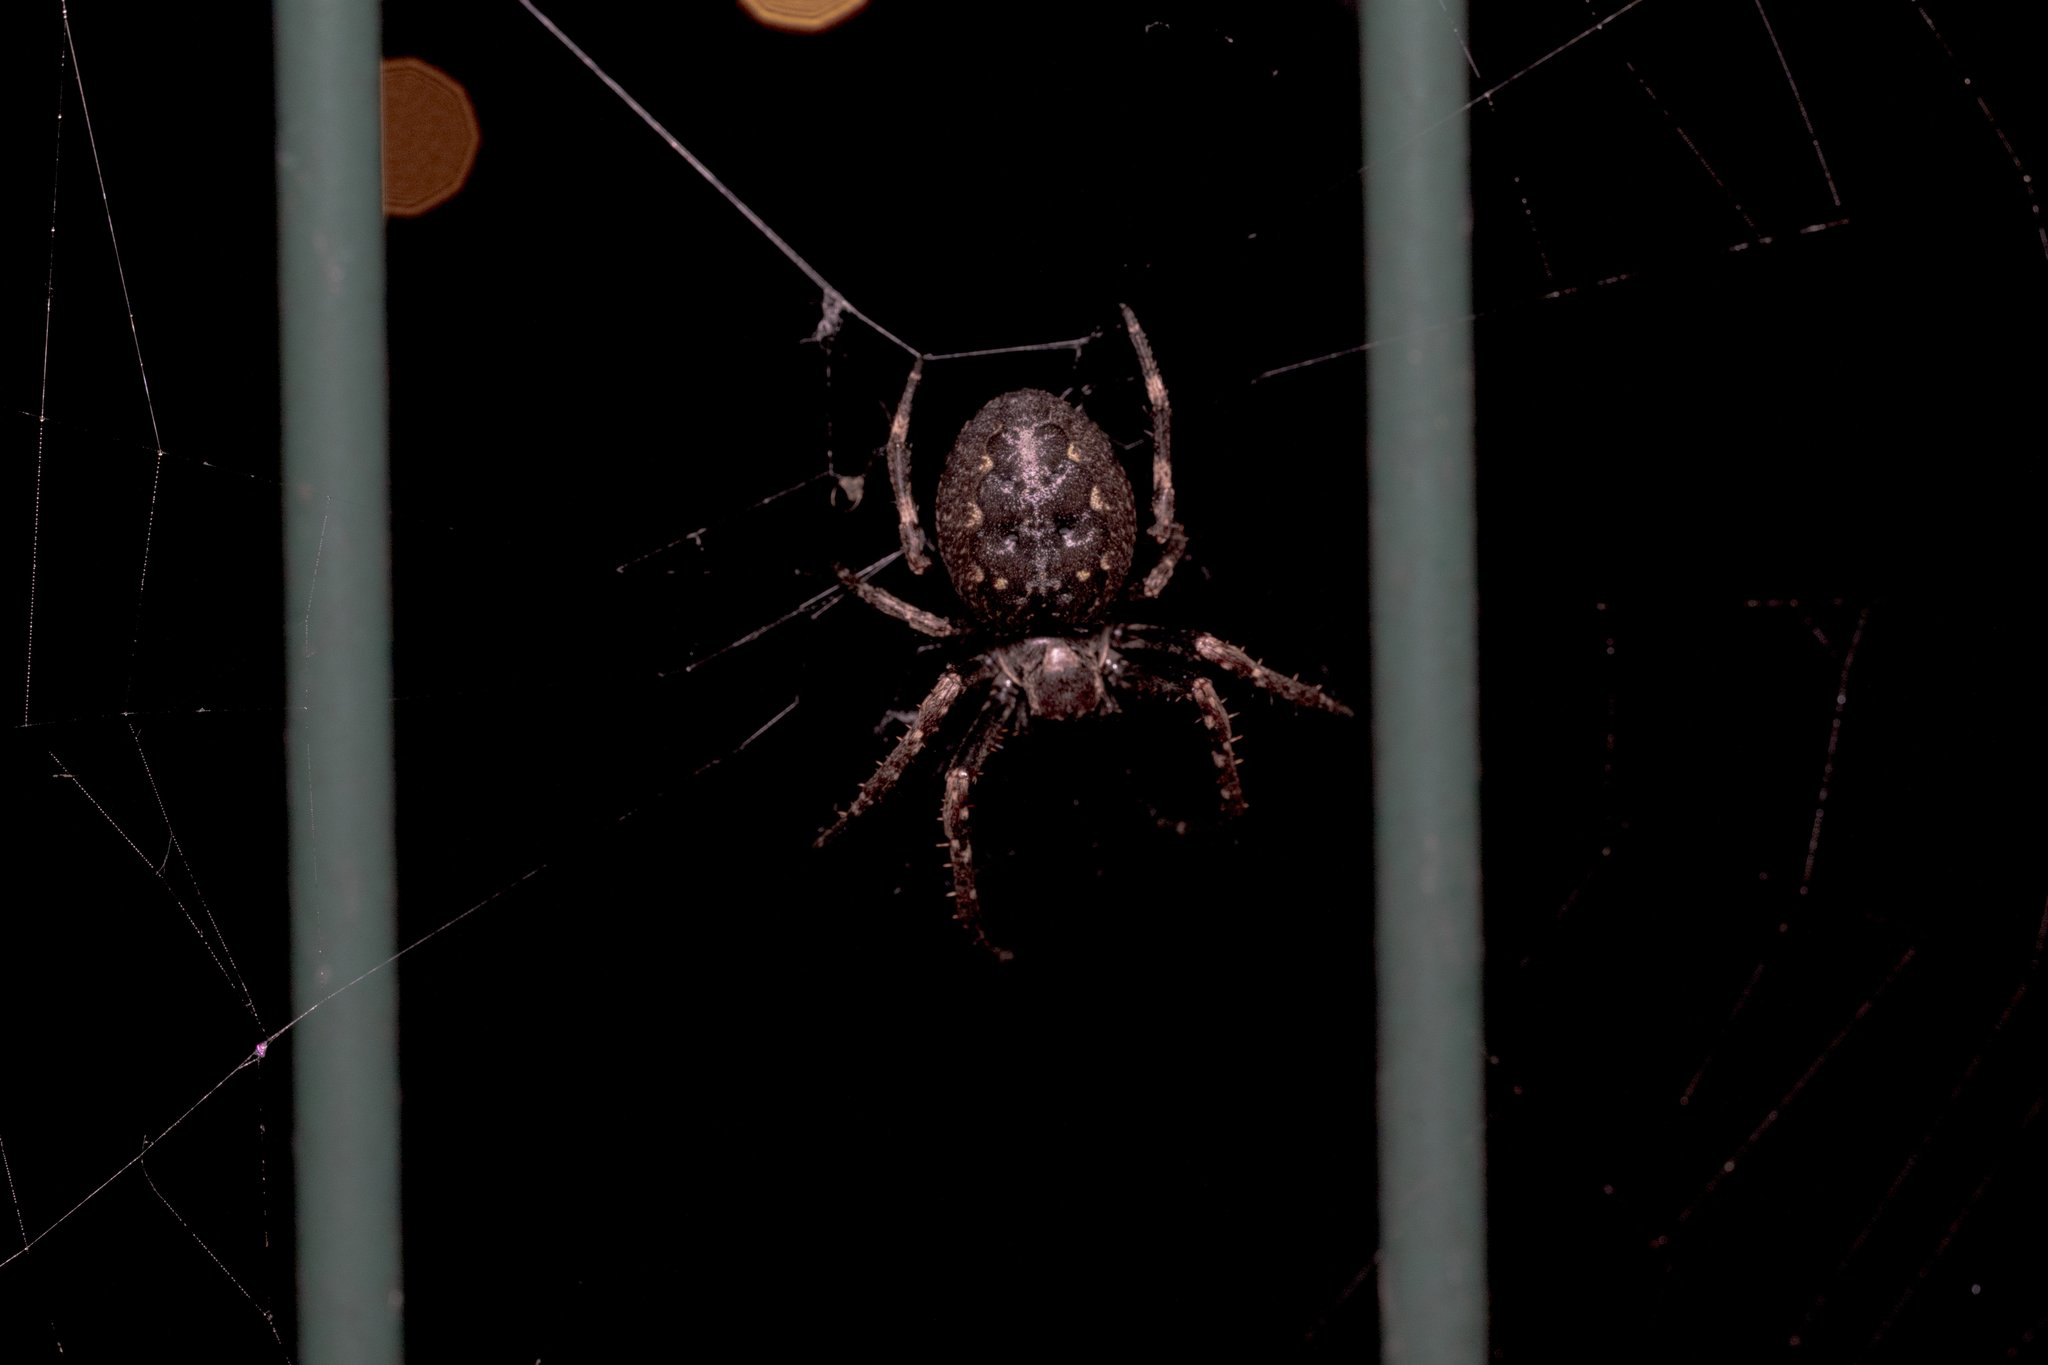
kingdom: Animalia
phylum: Arthropoda
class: Arachnida
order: Araneae
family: Araneidae
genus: Nuctenea
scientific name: Nuctenea umbratica
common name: Toad spider
